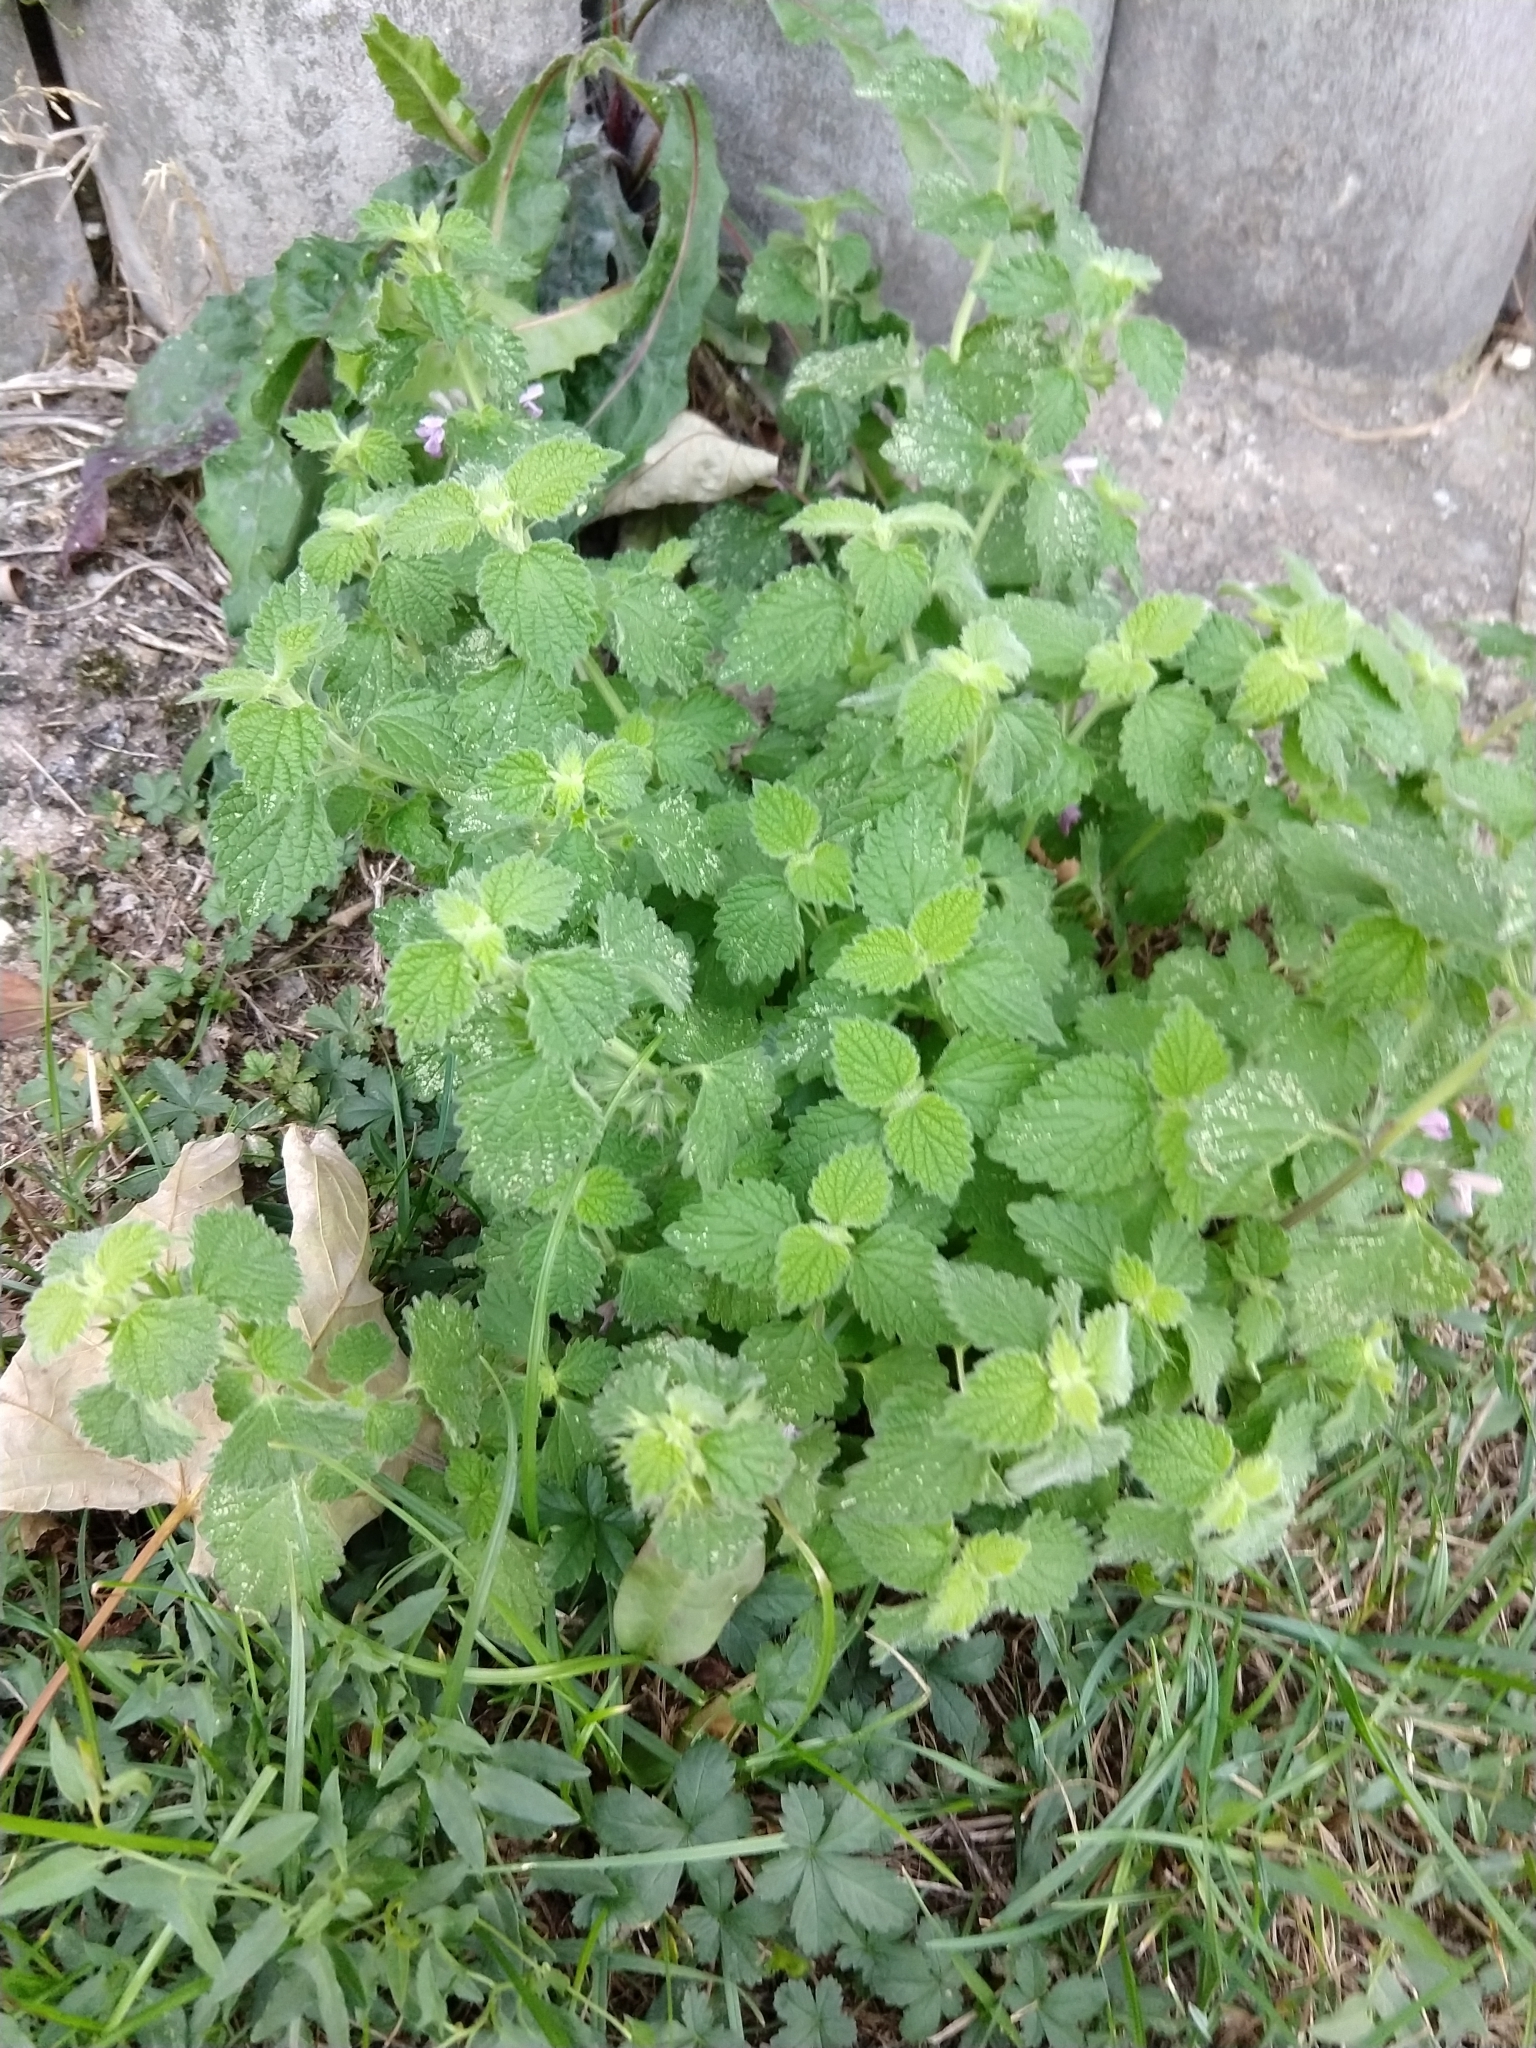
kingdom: Plantae
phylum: Tracheophyta
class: Magnoliopsida
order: Lamiales
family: Lamiaceae
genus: Ballota
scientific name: Ballota nigra
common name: Black horehound
